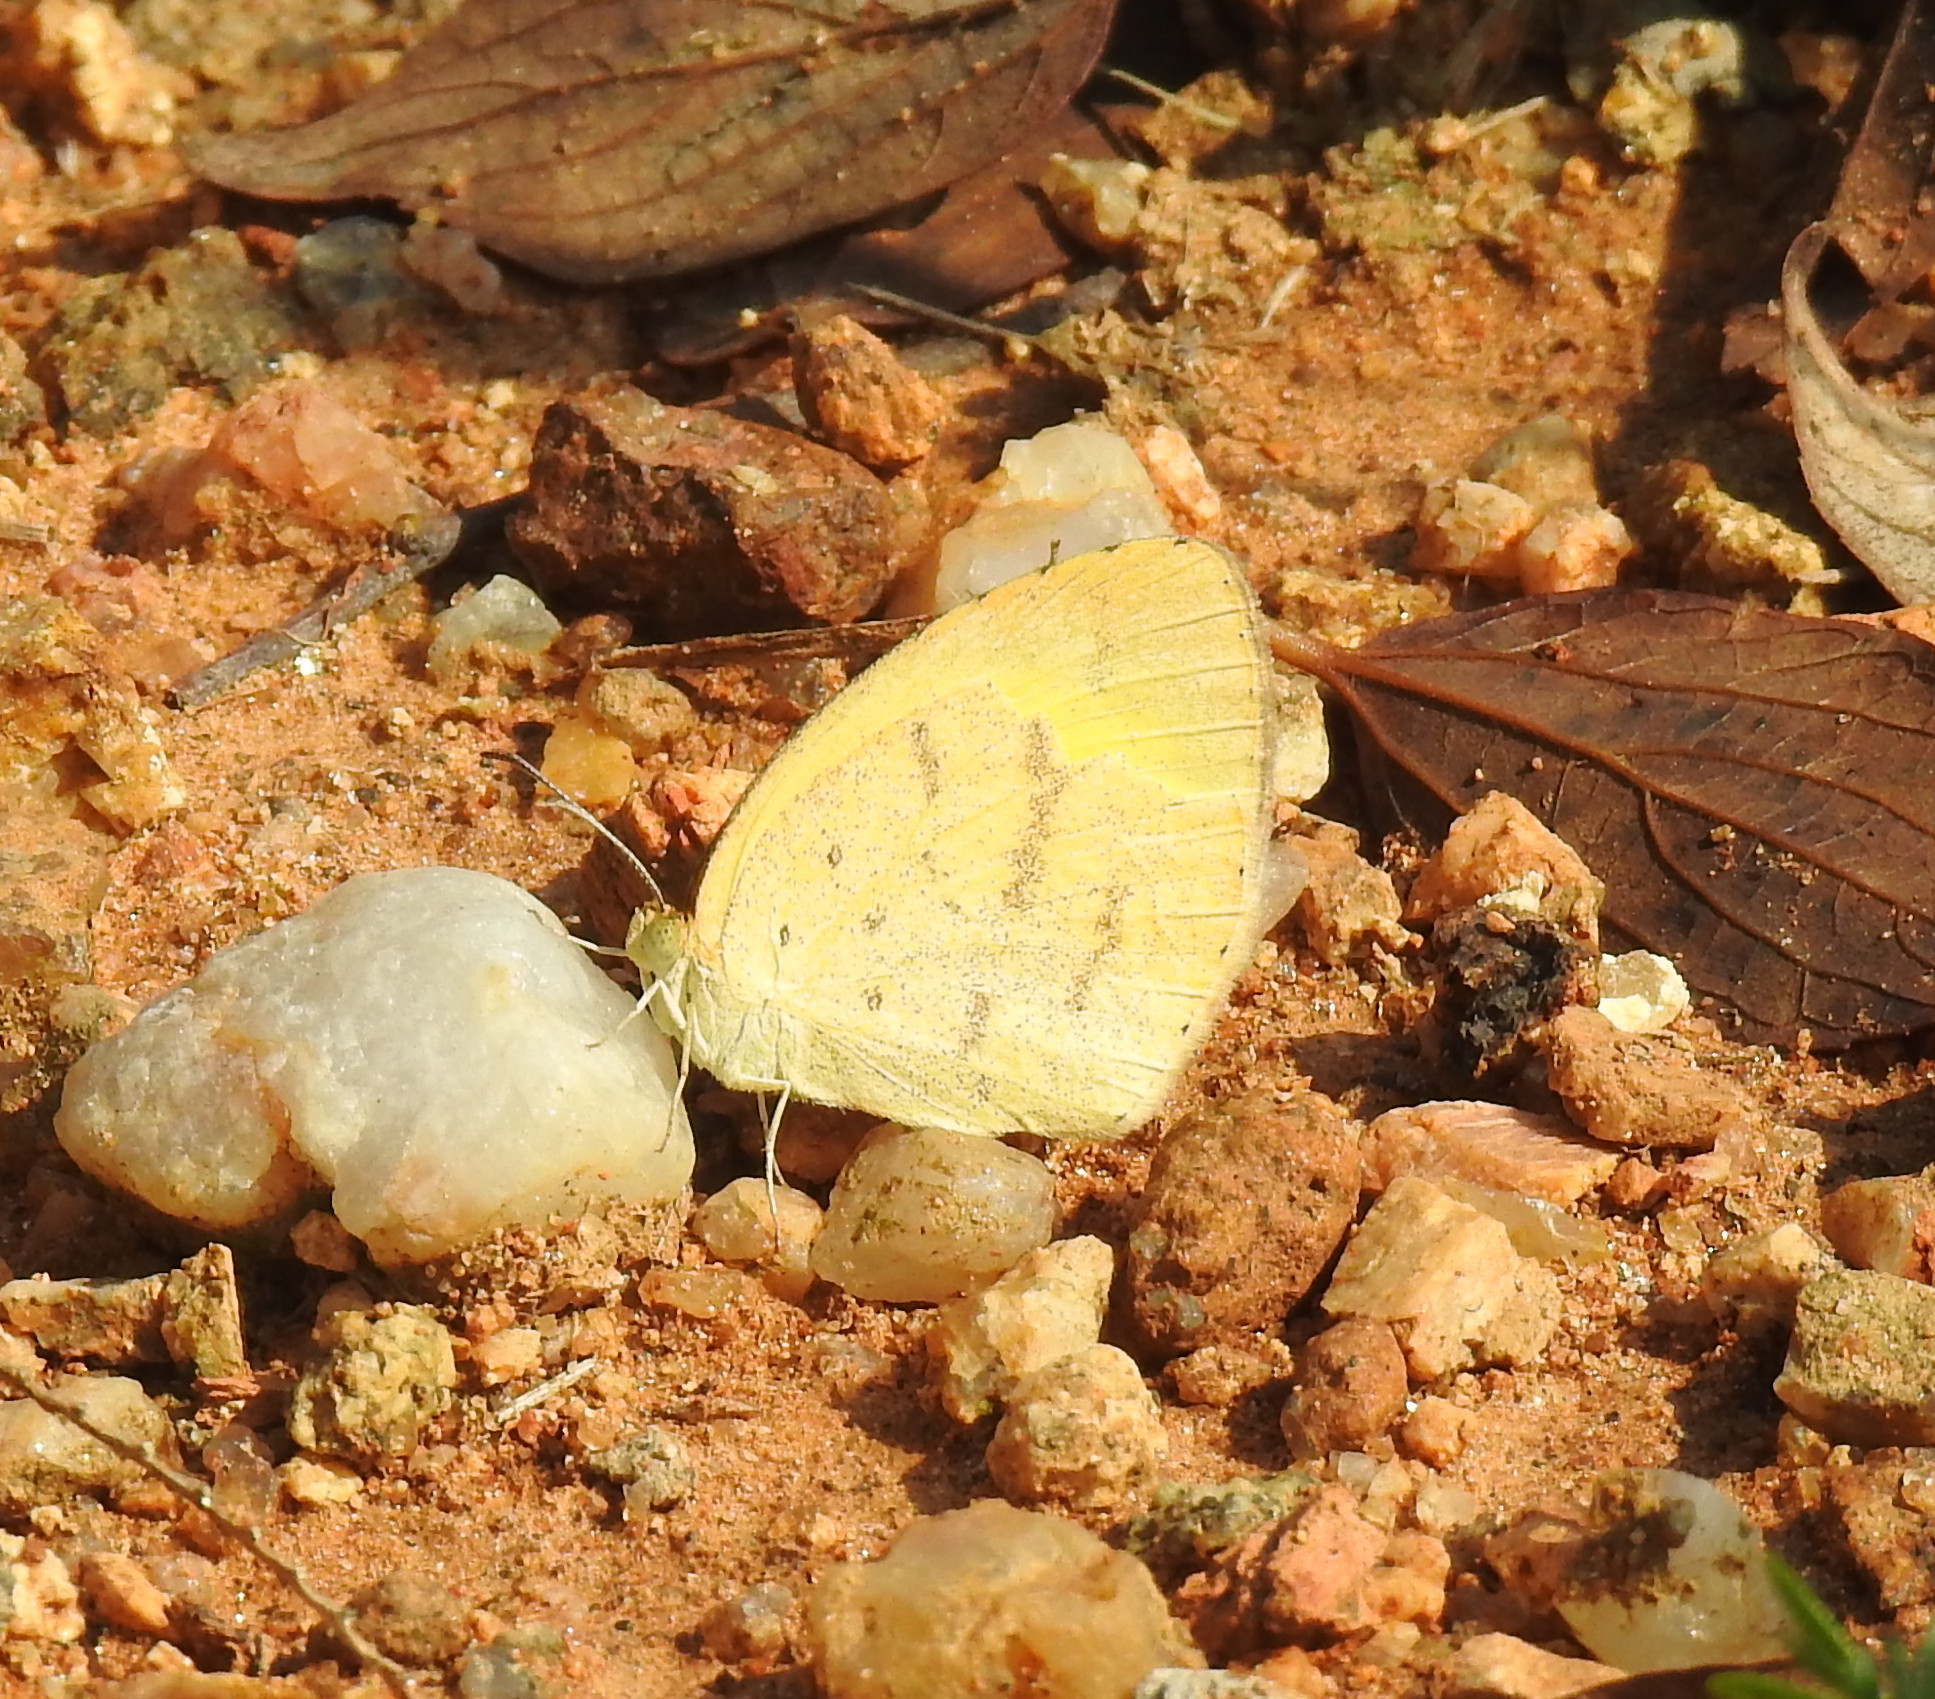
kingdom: Animalia
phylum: Arthropoda
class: Insecta
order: Lepidoptera
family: Pieridae
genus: Eurema
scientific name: Eurema brigitta
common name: Small grass yellow
